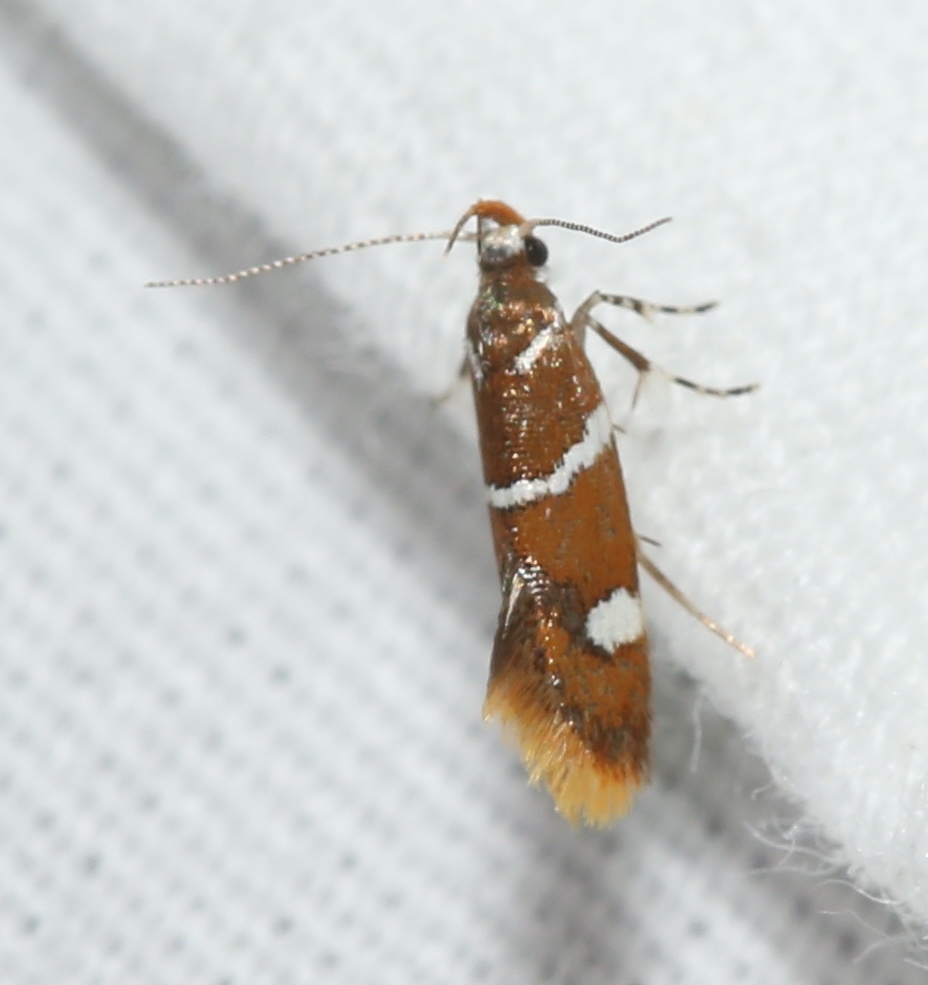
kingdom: Animalia
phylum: Arthropoda
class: Insecta
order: Lepidoptera
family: Oecophoridae
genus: Promalactis
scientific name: Promalactis suzukiella
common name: Moth
